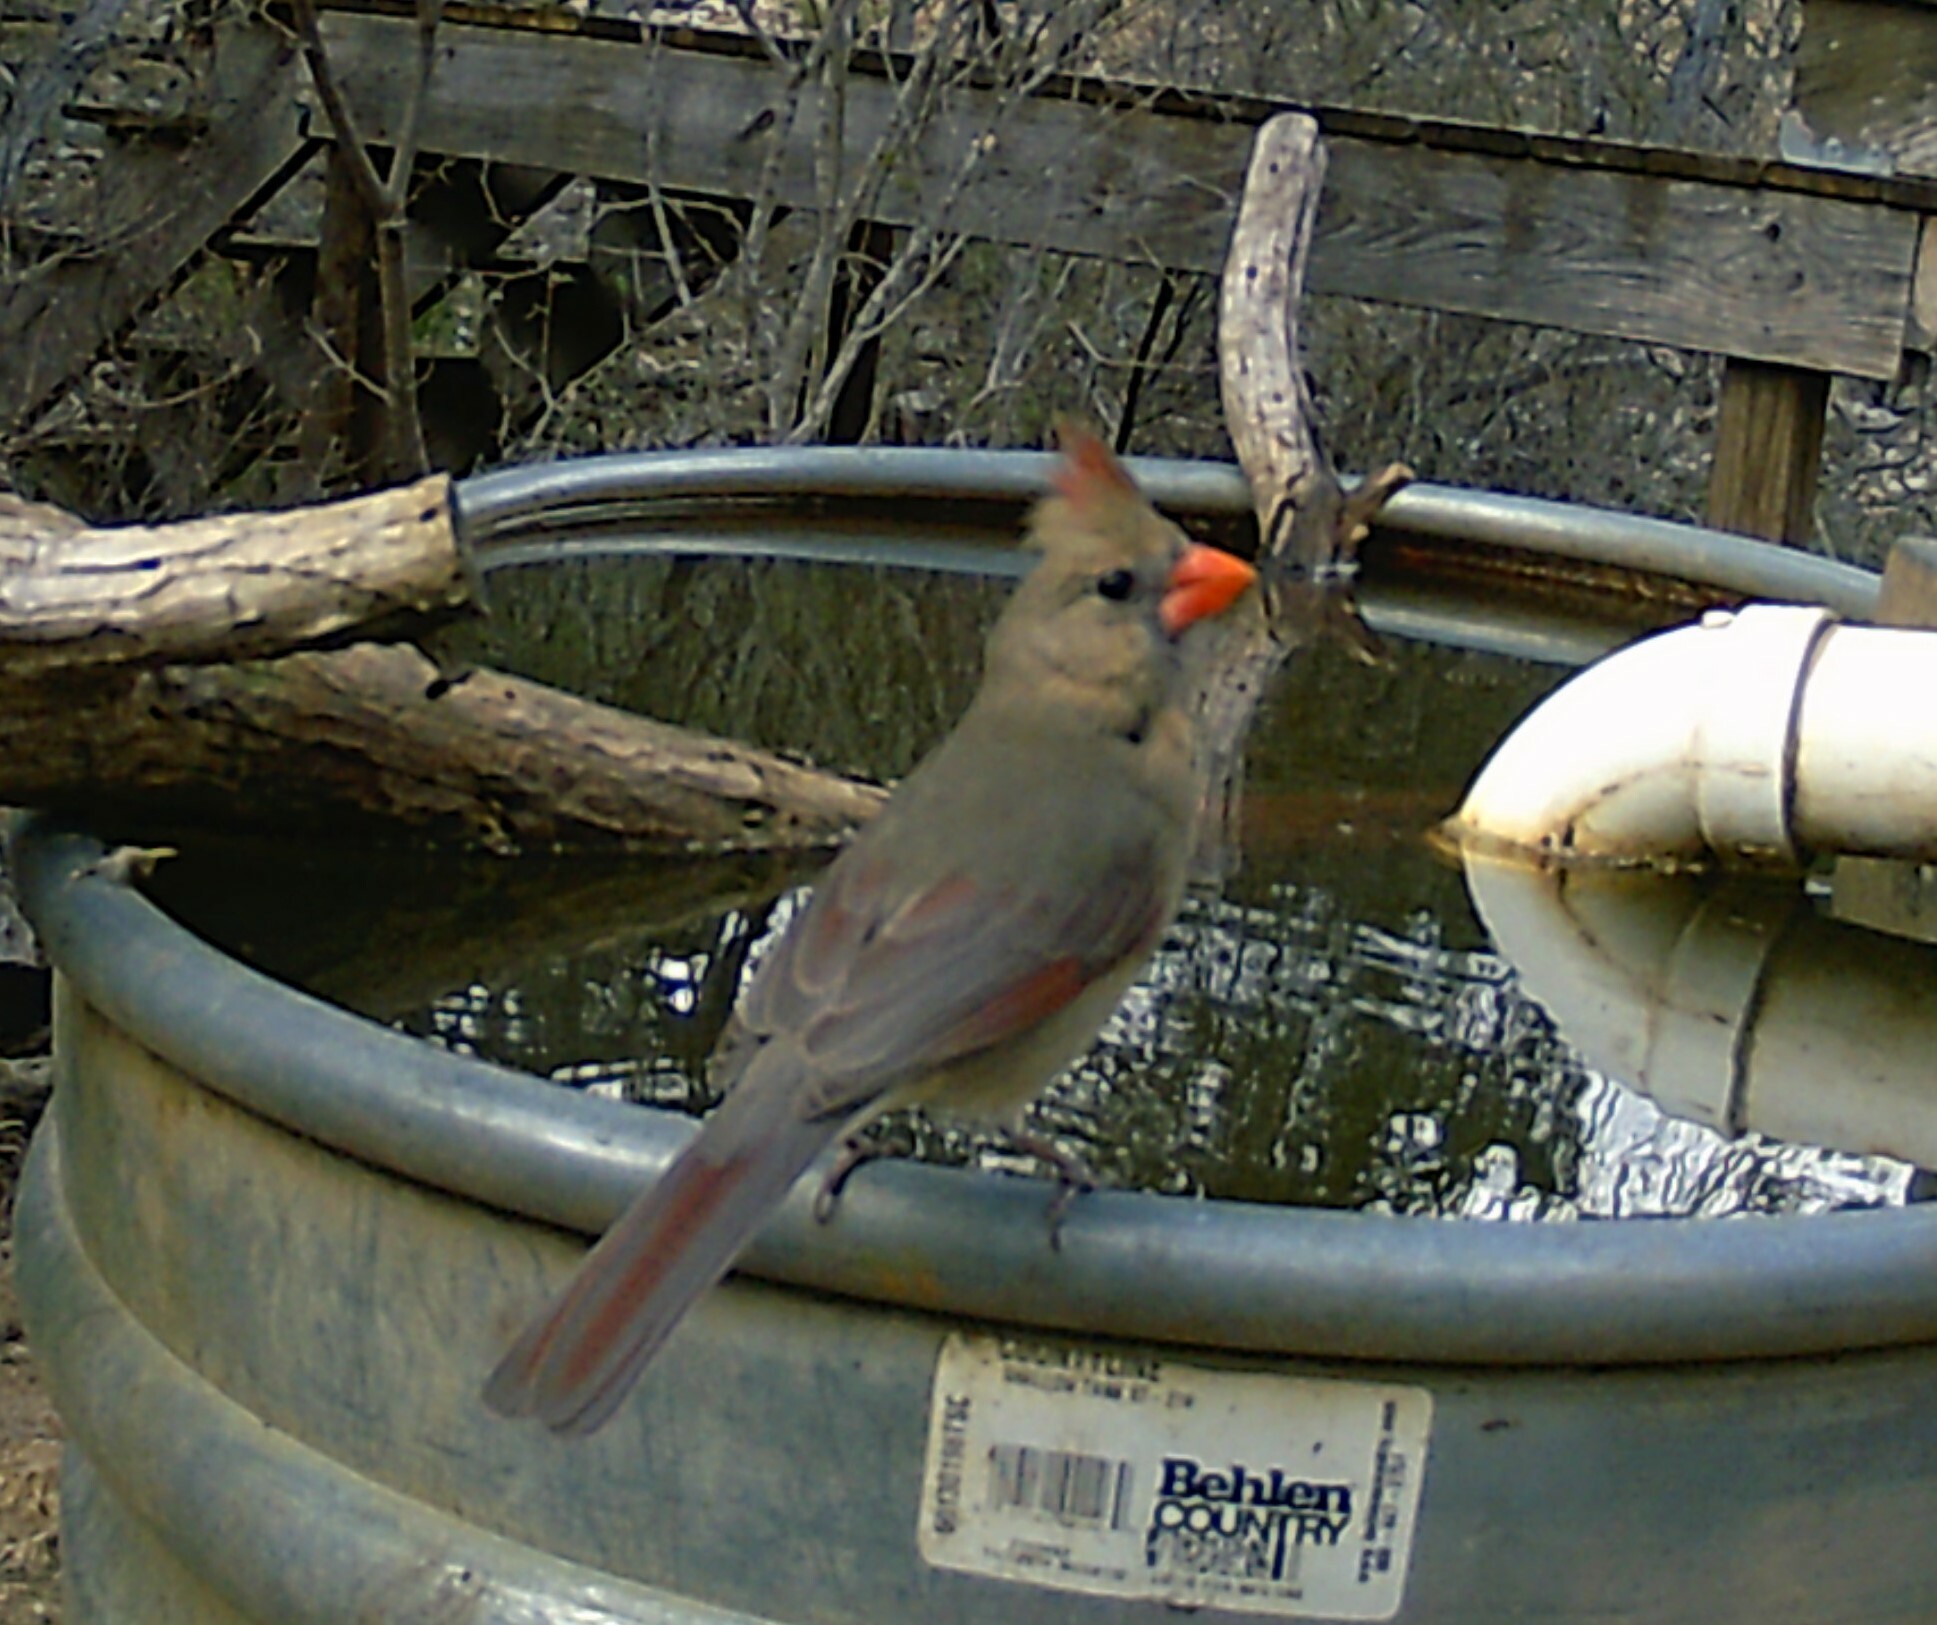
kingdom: Animalia
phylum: Chordata
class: Aves
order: Passeriformes
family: Cardinalidae
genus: Cardinalis
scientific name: Cardinalis cardinalis
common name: Northern cardinal
